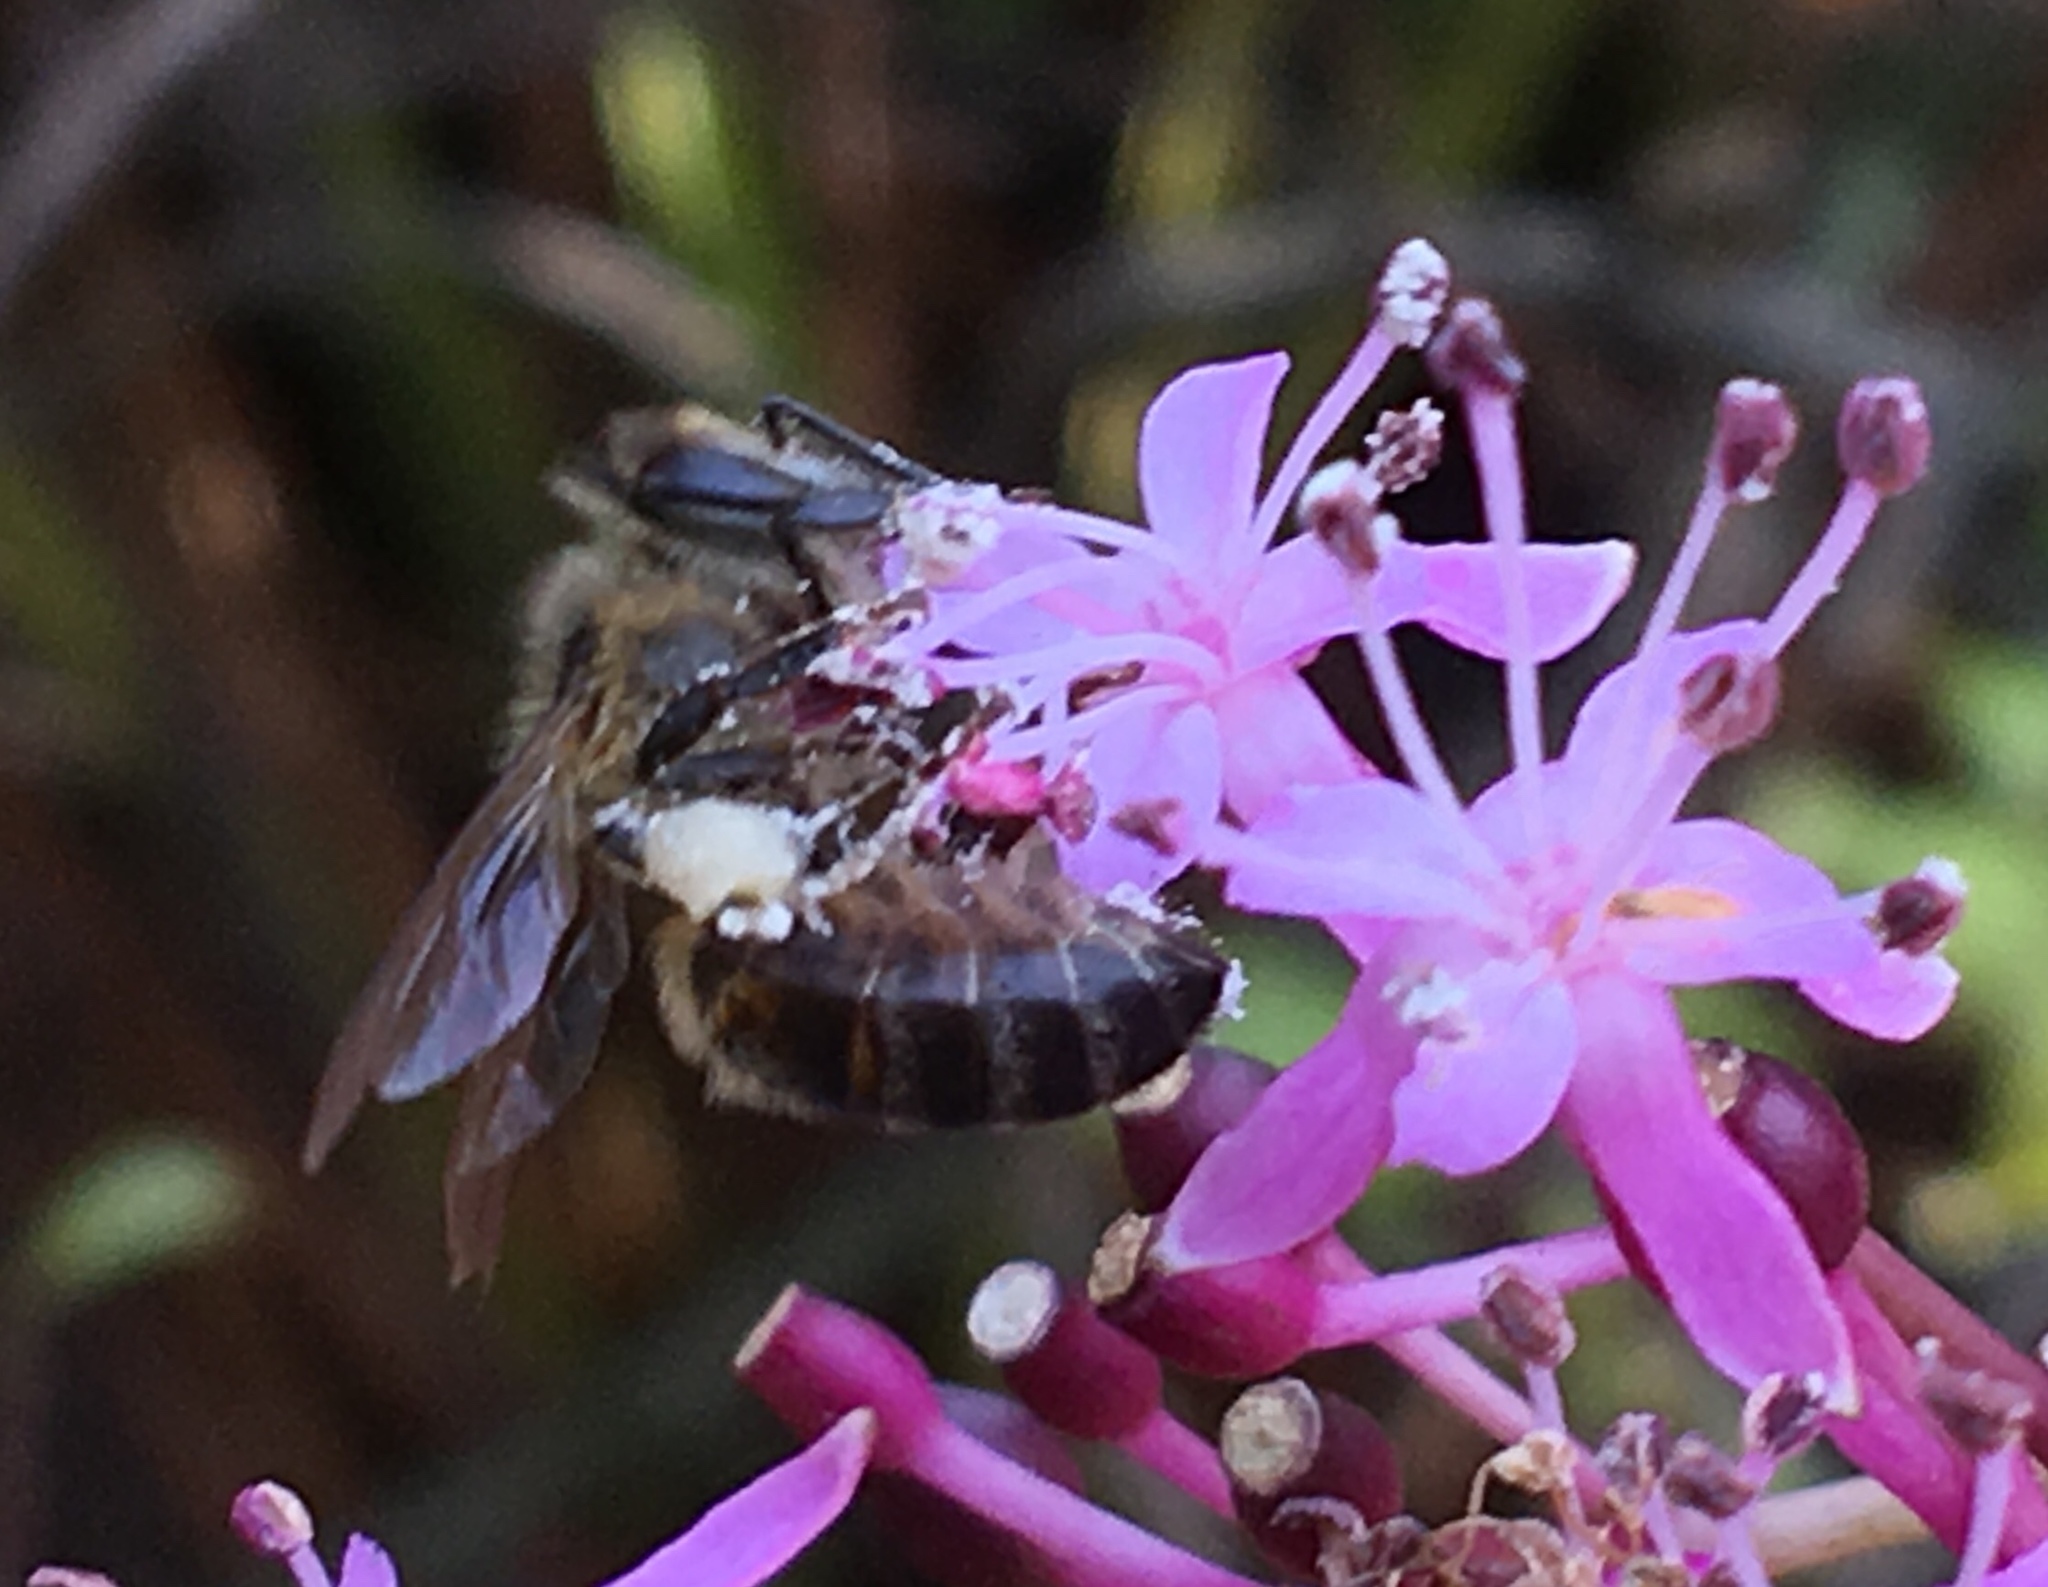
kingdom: Animalia
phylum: Arthropoda
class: Insecta
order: Hymenoptera
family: Apidae
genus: Apis
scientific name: Apis mellifera
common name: Honey bee
